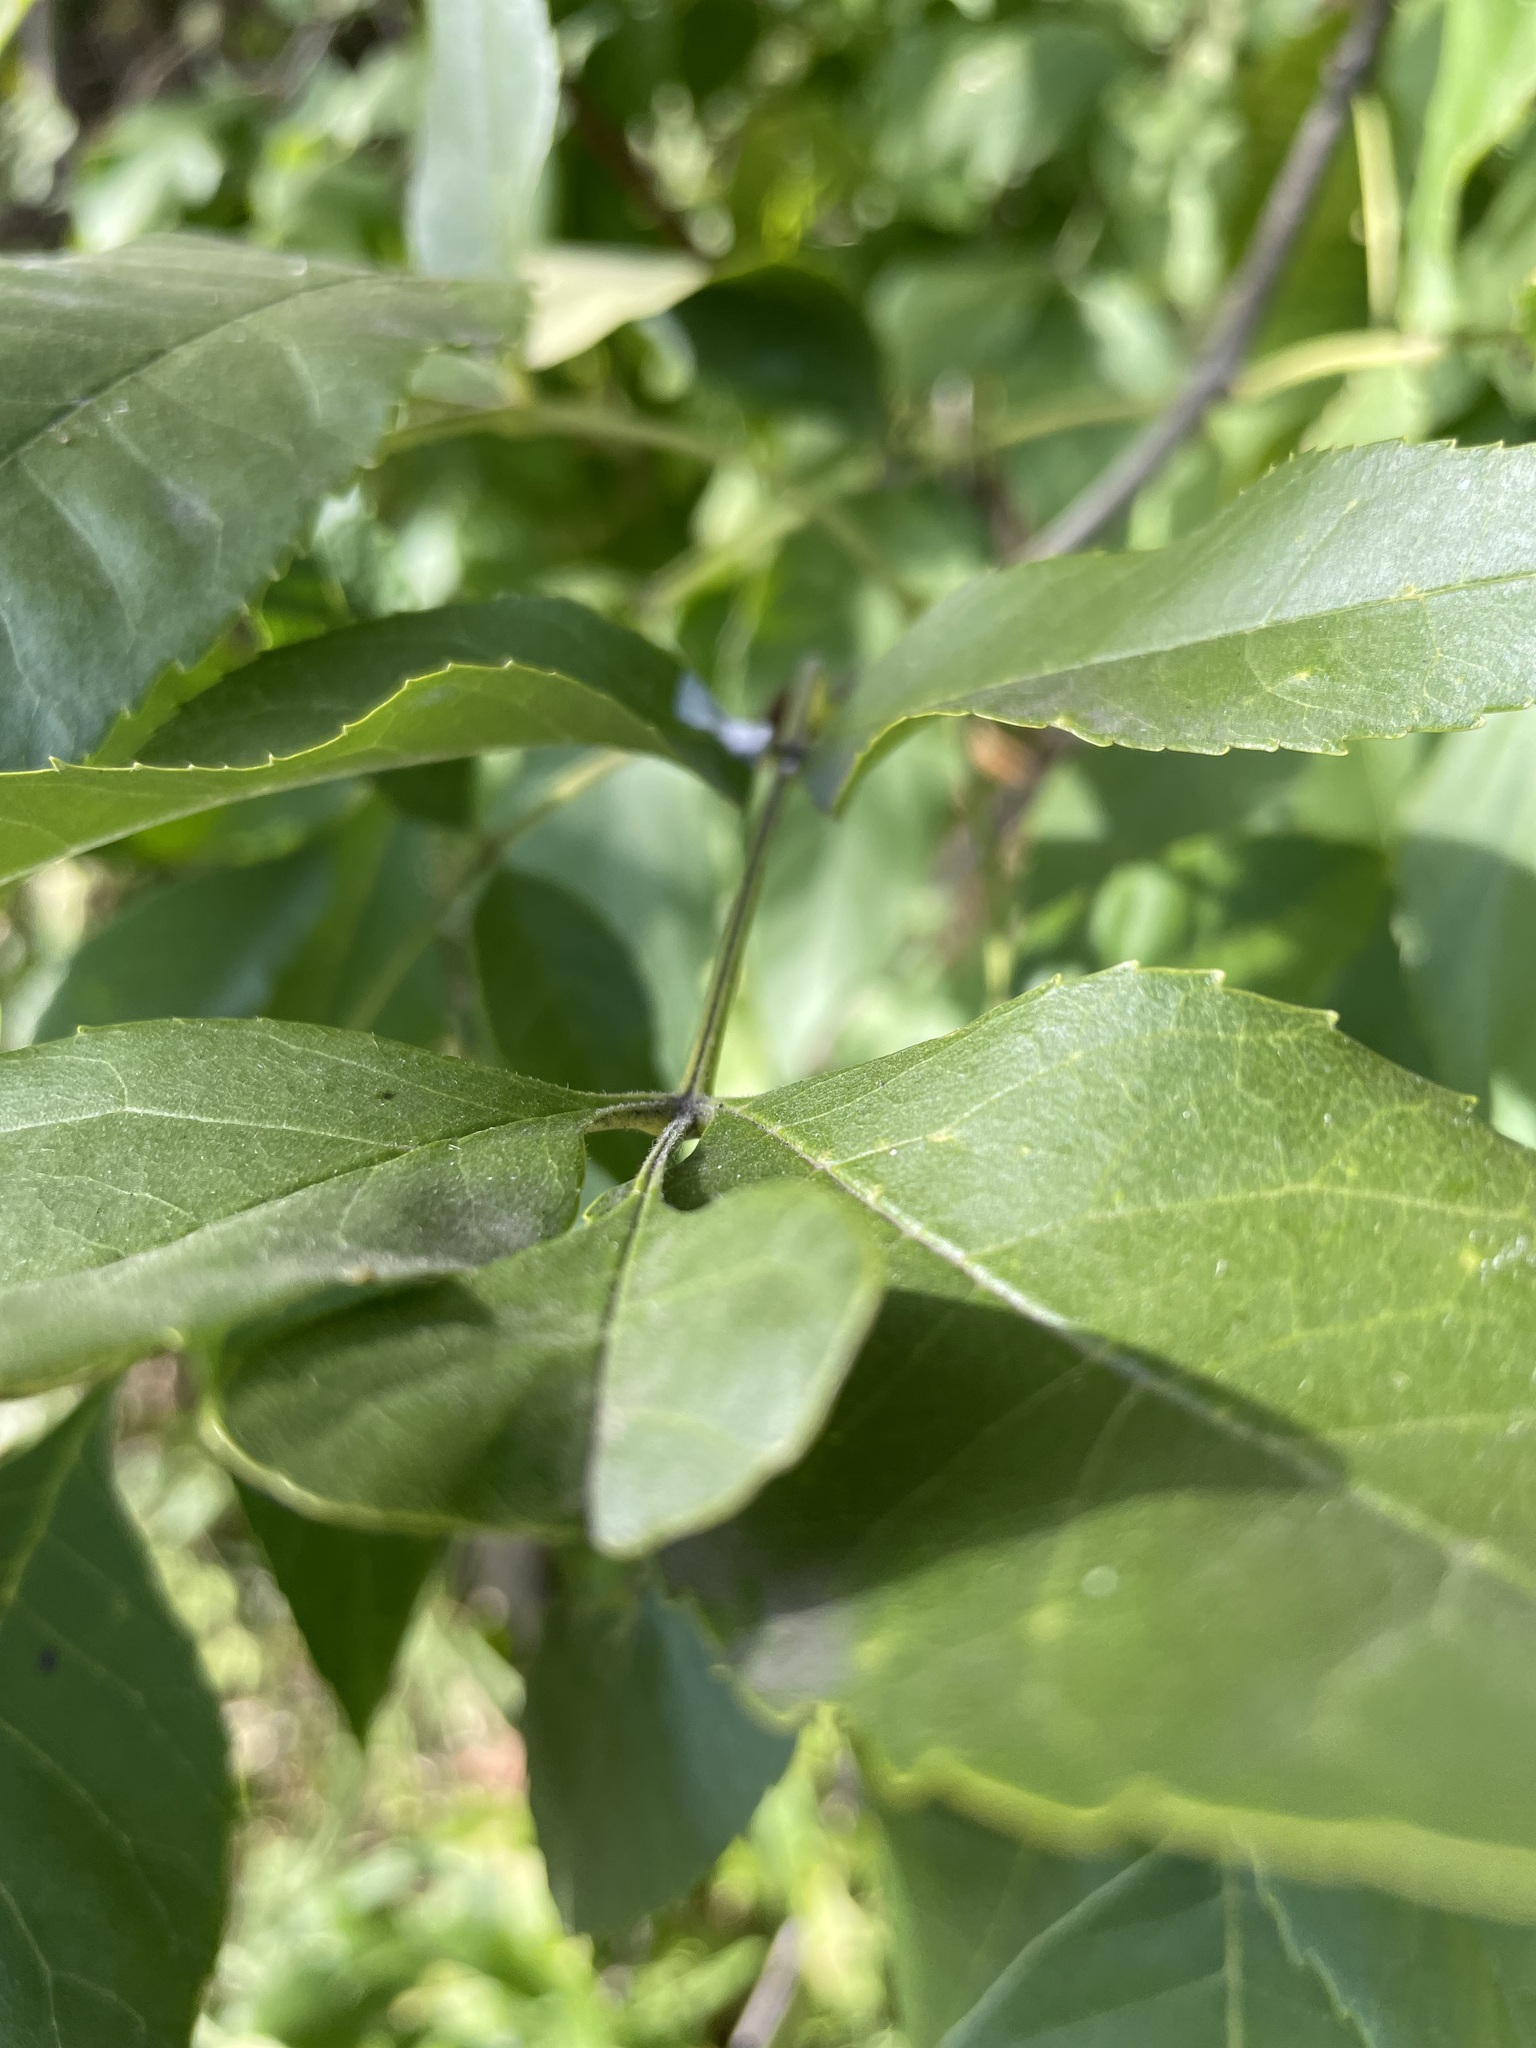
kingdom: Plantae
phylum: Tracheophyta
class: Magnoliopsida
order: Lamiales
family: Oleaceae
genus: Fraxinus
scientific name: Fraxinus pennsylvanica
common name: Green ash
